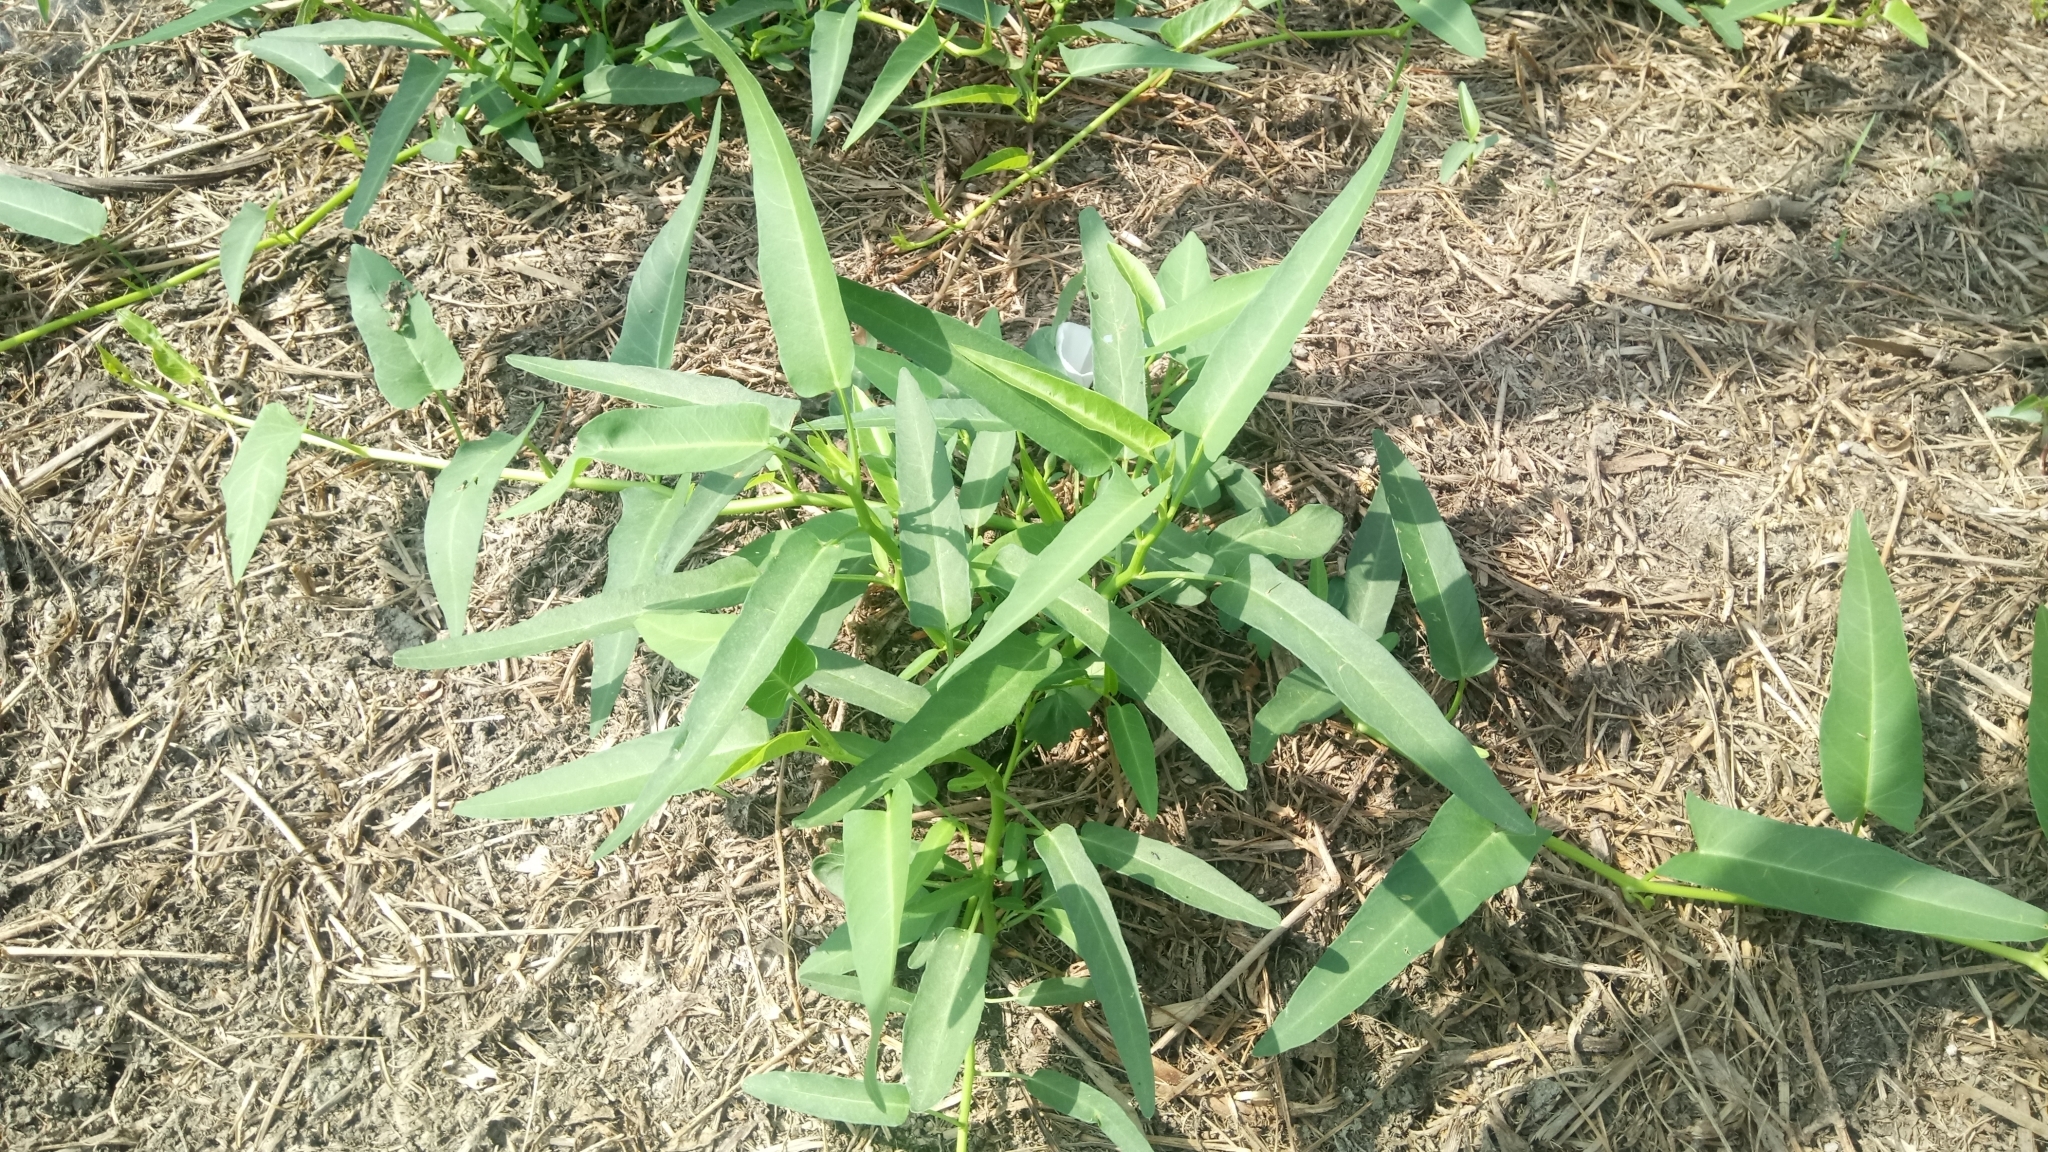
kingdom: Plantae
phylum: Tracheophyta
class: Magnoliopsida
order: Solanales
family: Convolvulaceae
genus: Ipomoea
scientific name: Ipomoea aquatica
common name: Swamp morning-glory
